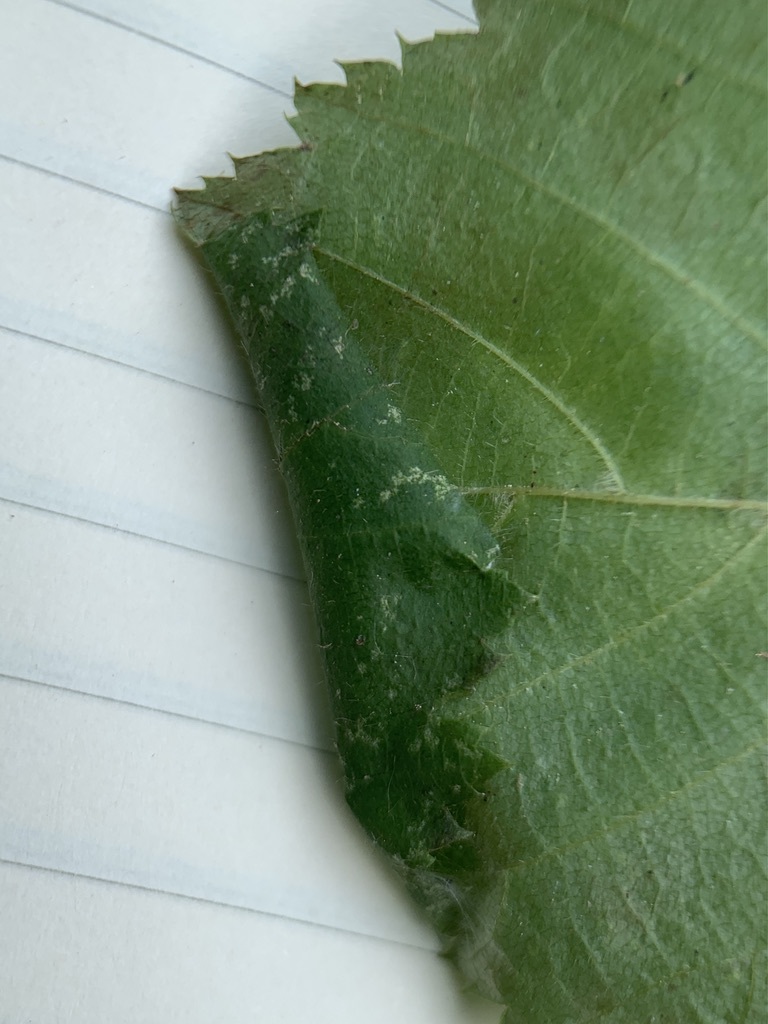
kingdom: Animalia
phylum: Arthropoda
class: Insecta
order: Lepidoptera
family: Gracillariidae
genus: Caloptilia
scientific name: Caloptilia ostryaeella
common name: Ironwood leafcone moth
